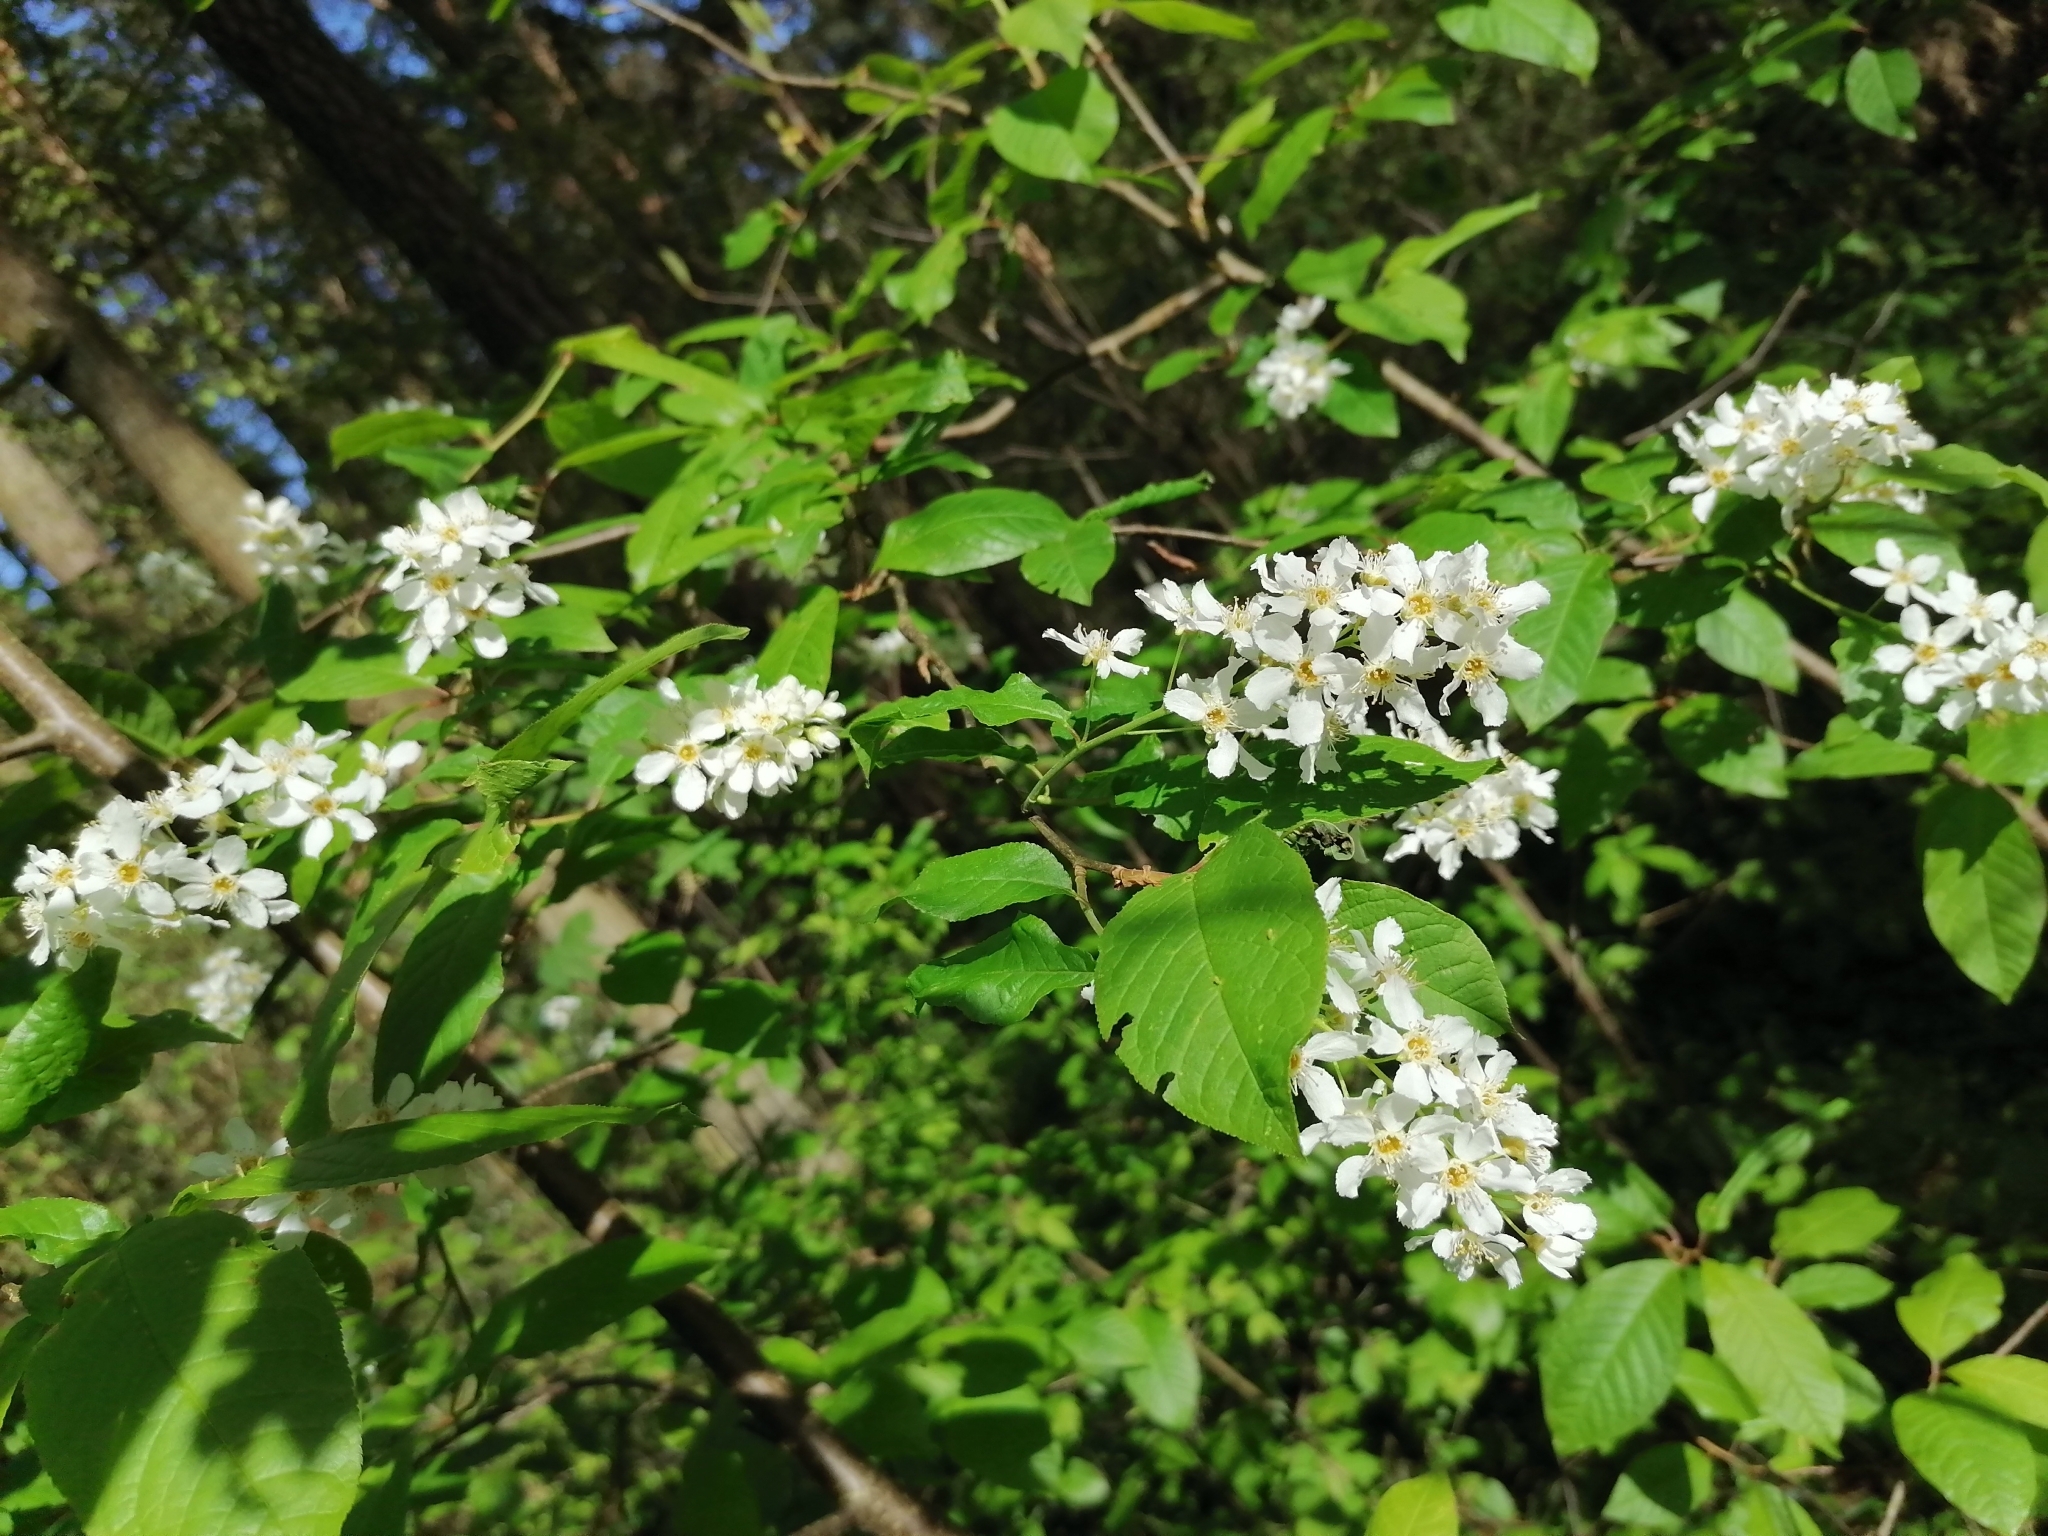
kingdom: Plantae
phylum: Tracheophyta
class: Magnoliopsida
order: Rosales
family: Rosaceae
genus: Prunus
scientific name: Prunus padus
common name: Bird cherry
